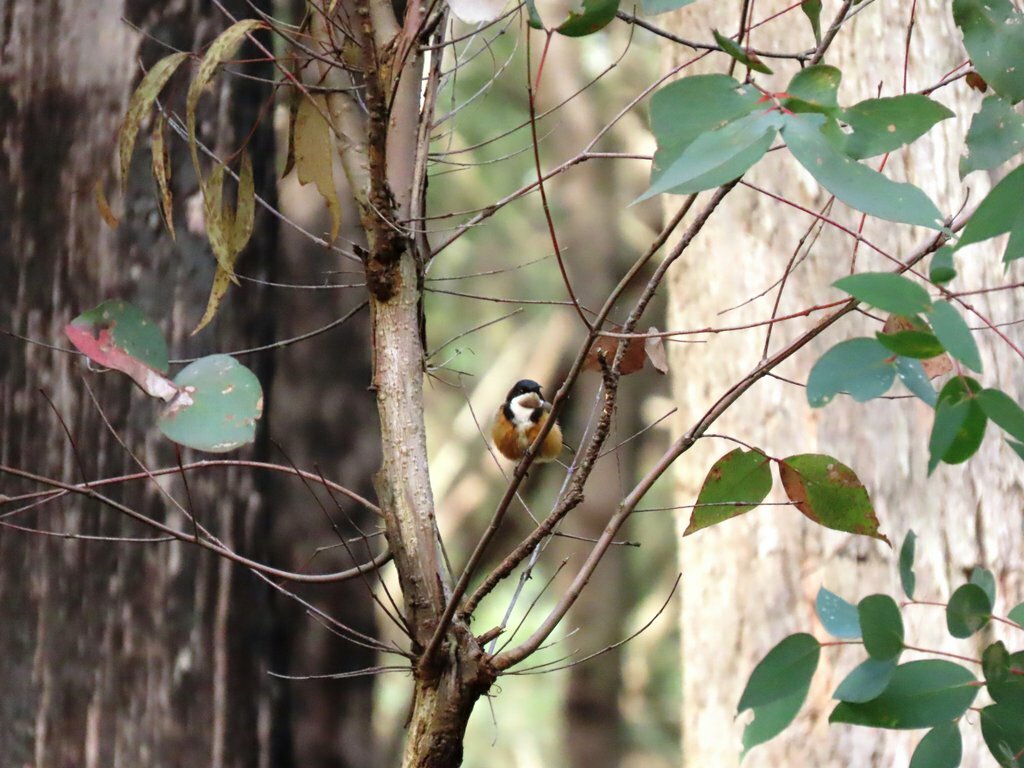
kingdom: Animalia
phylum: Chordata
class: Aves
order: Passeriformes
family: Meliphagidae
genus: Acanthorhynchus
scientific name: Acanthorhynchus tenuirostris
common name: Eastern spinebill
